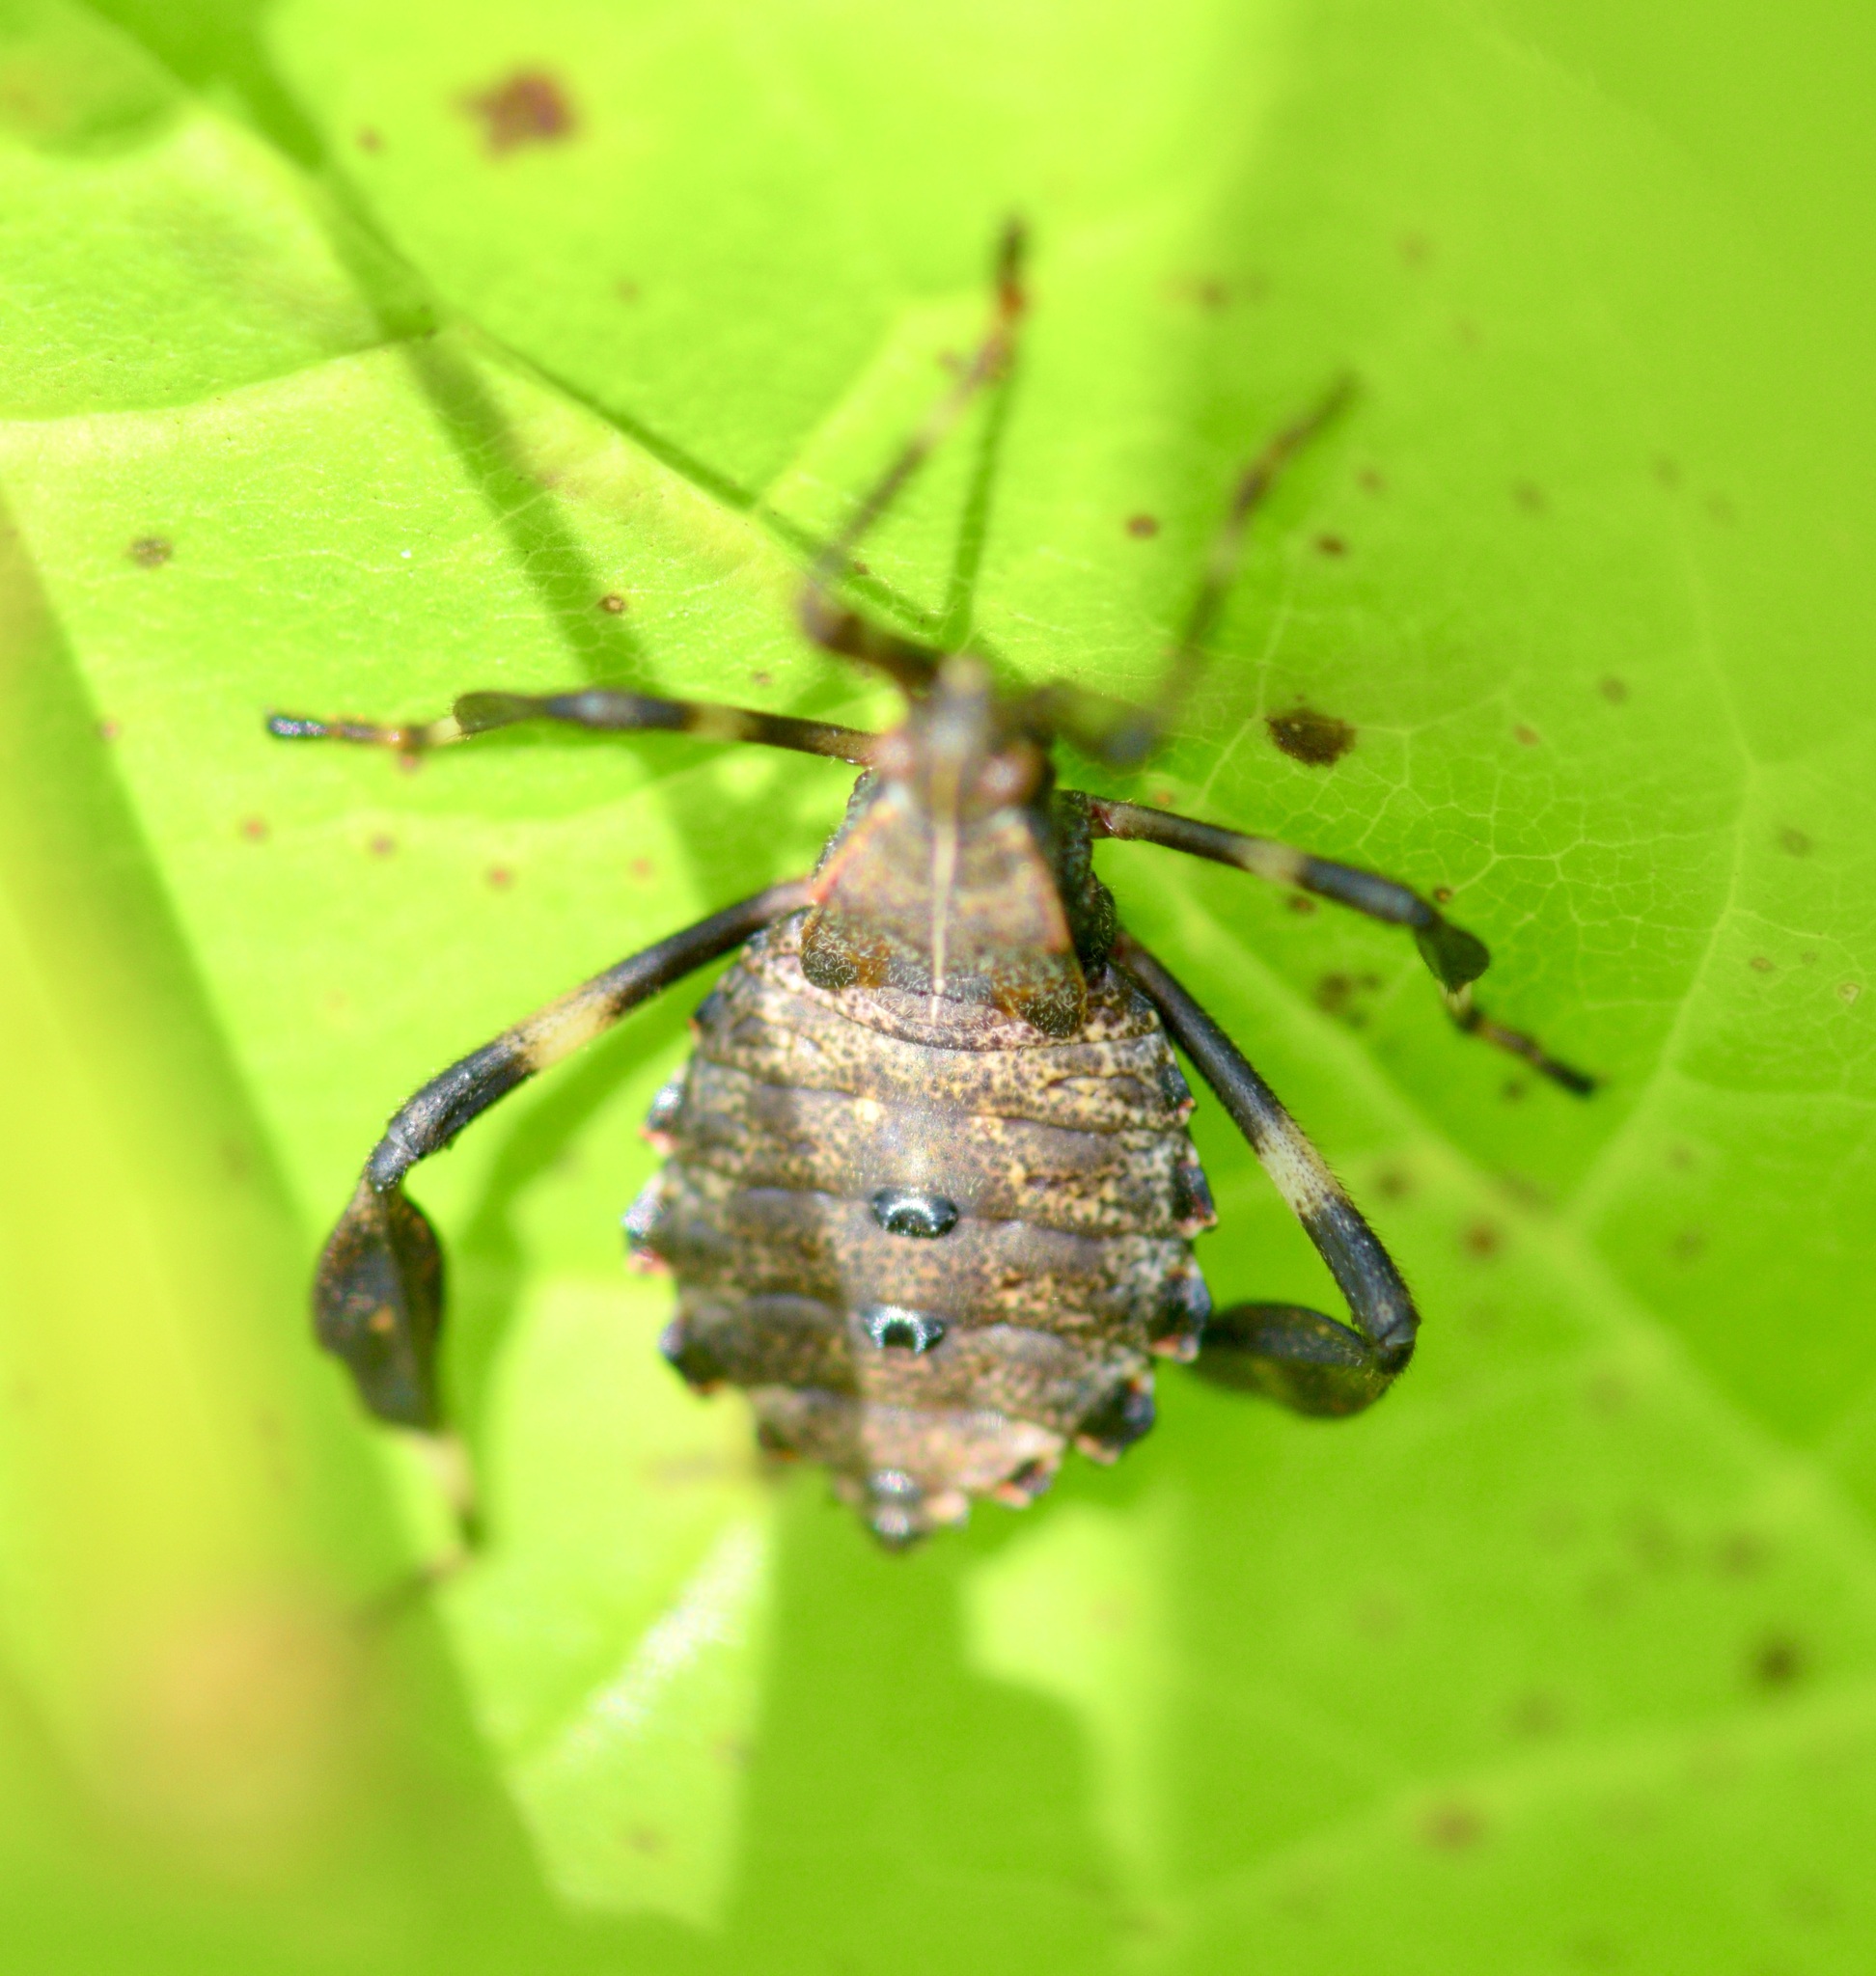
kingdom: Animalia
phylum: Arthropoda
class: Insecta
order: Hemiptera
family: Coreidae
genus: Acanthocephala
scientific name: Acanthocephala terminalis
